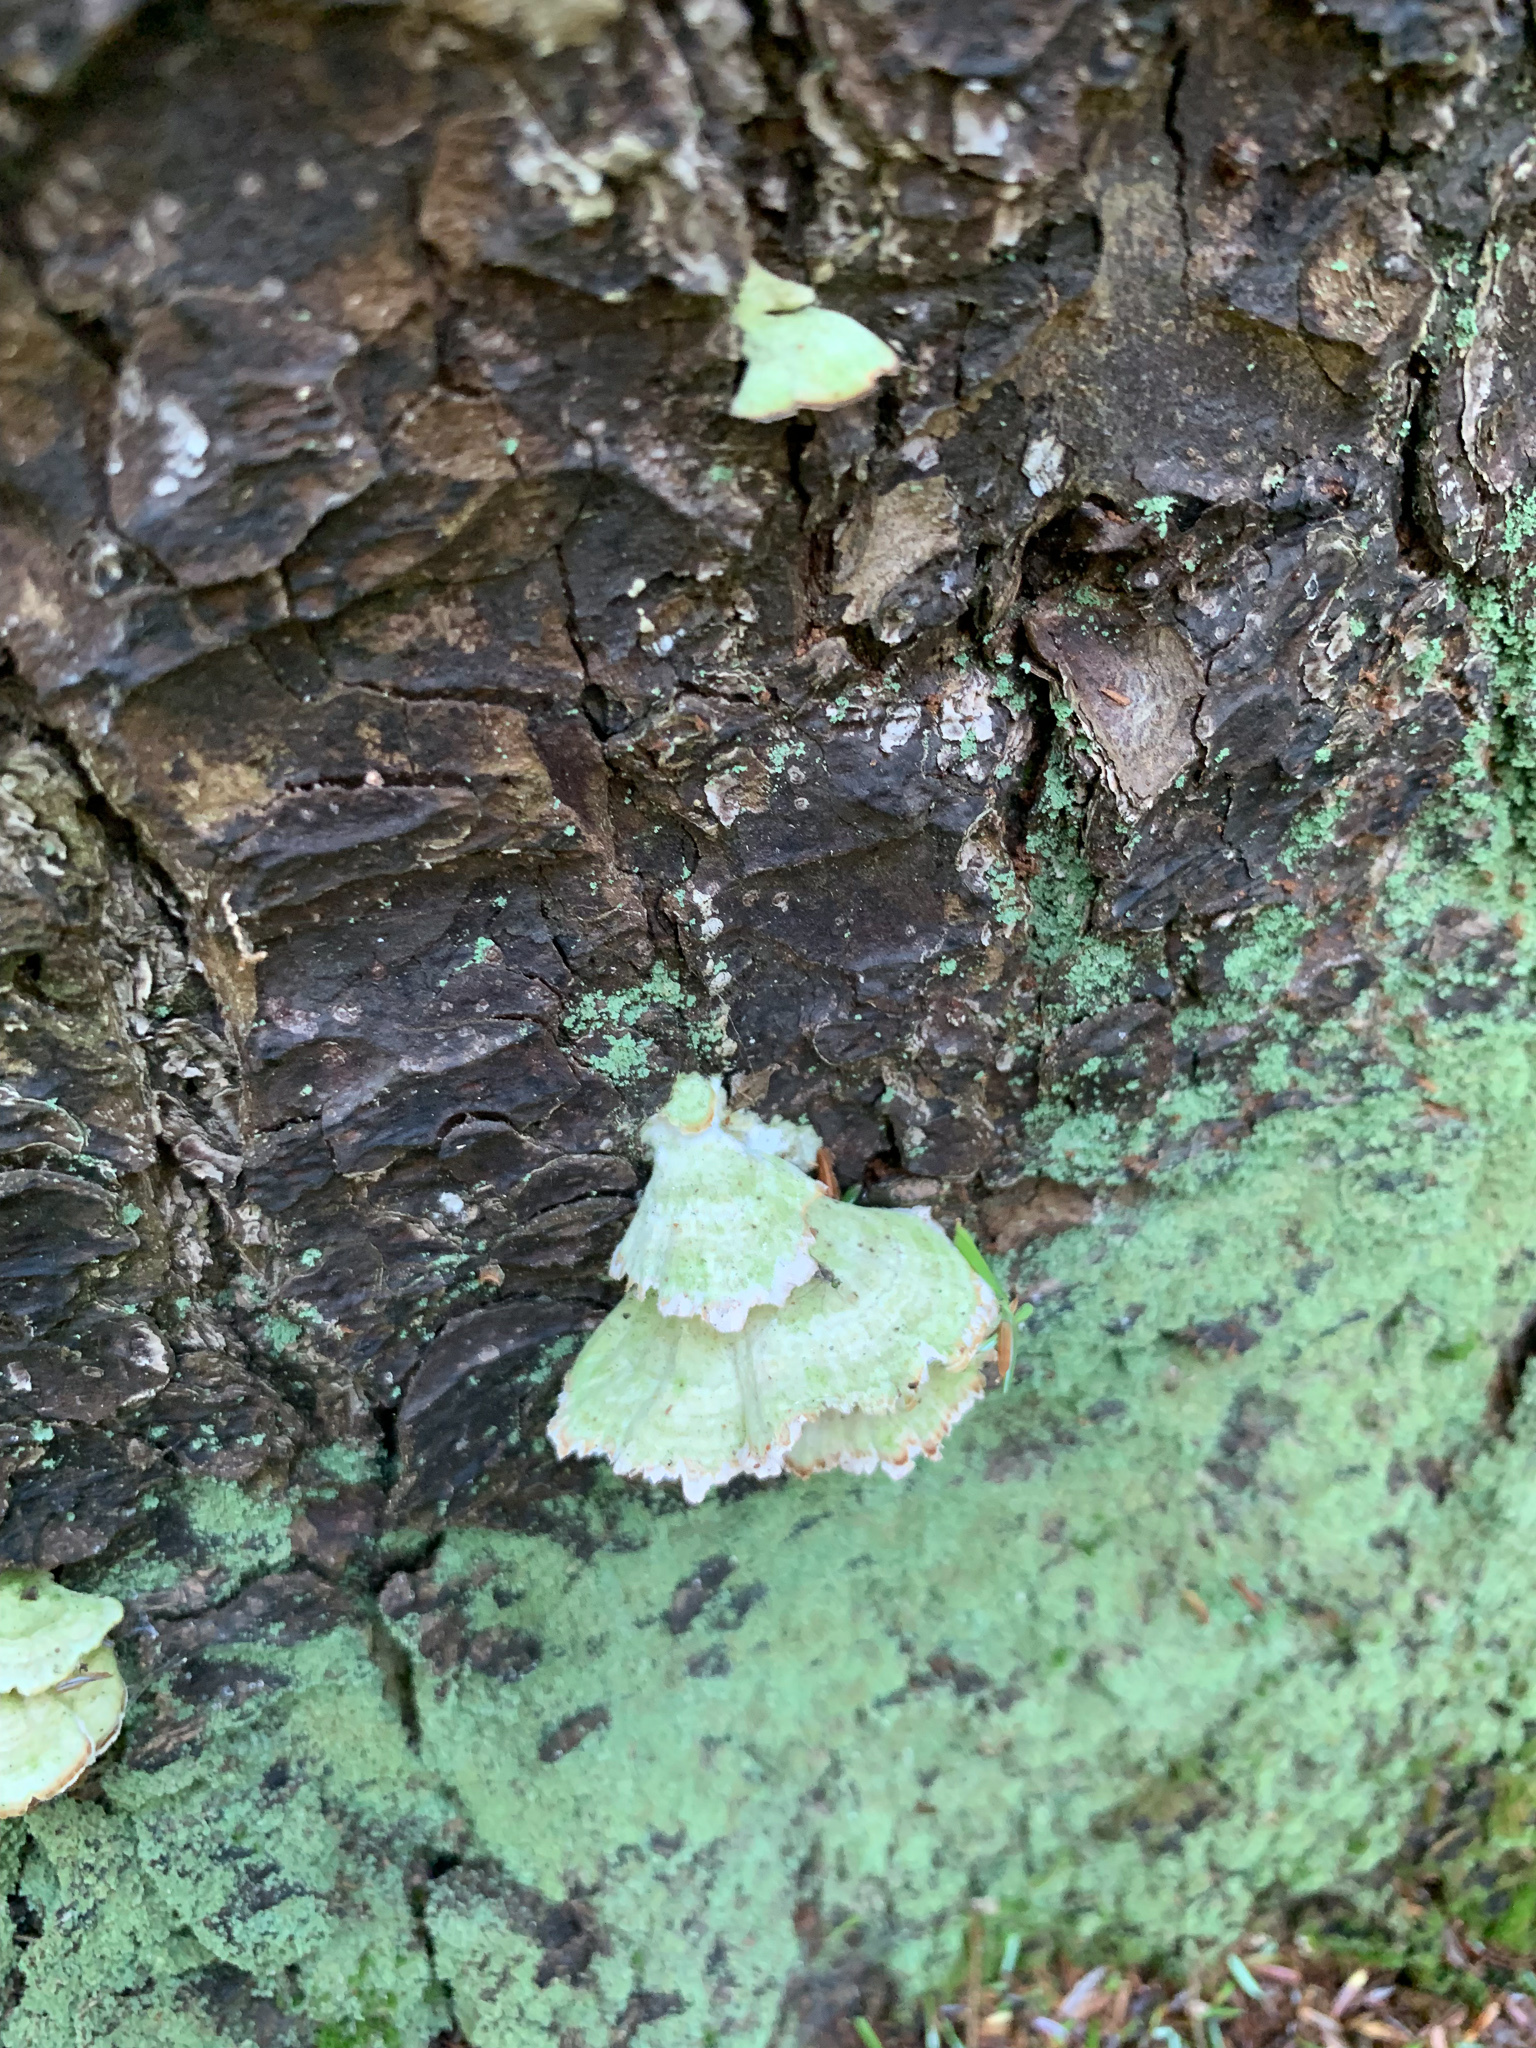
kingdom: Fungi
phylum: Basidiomycota
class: Agaricomycetes
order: Hymenochaetales
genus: Trichaptum
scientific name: Trichaptum abietinum
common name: Purplepore bracket
